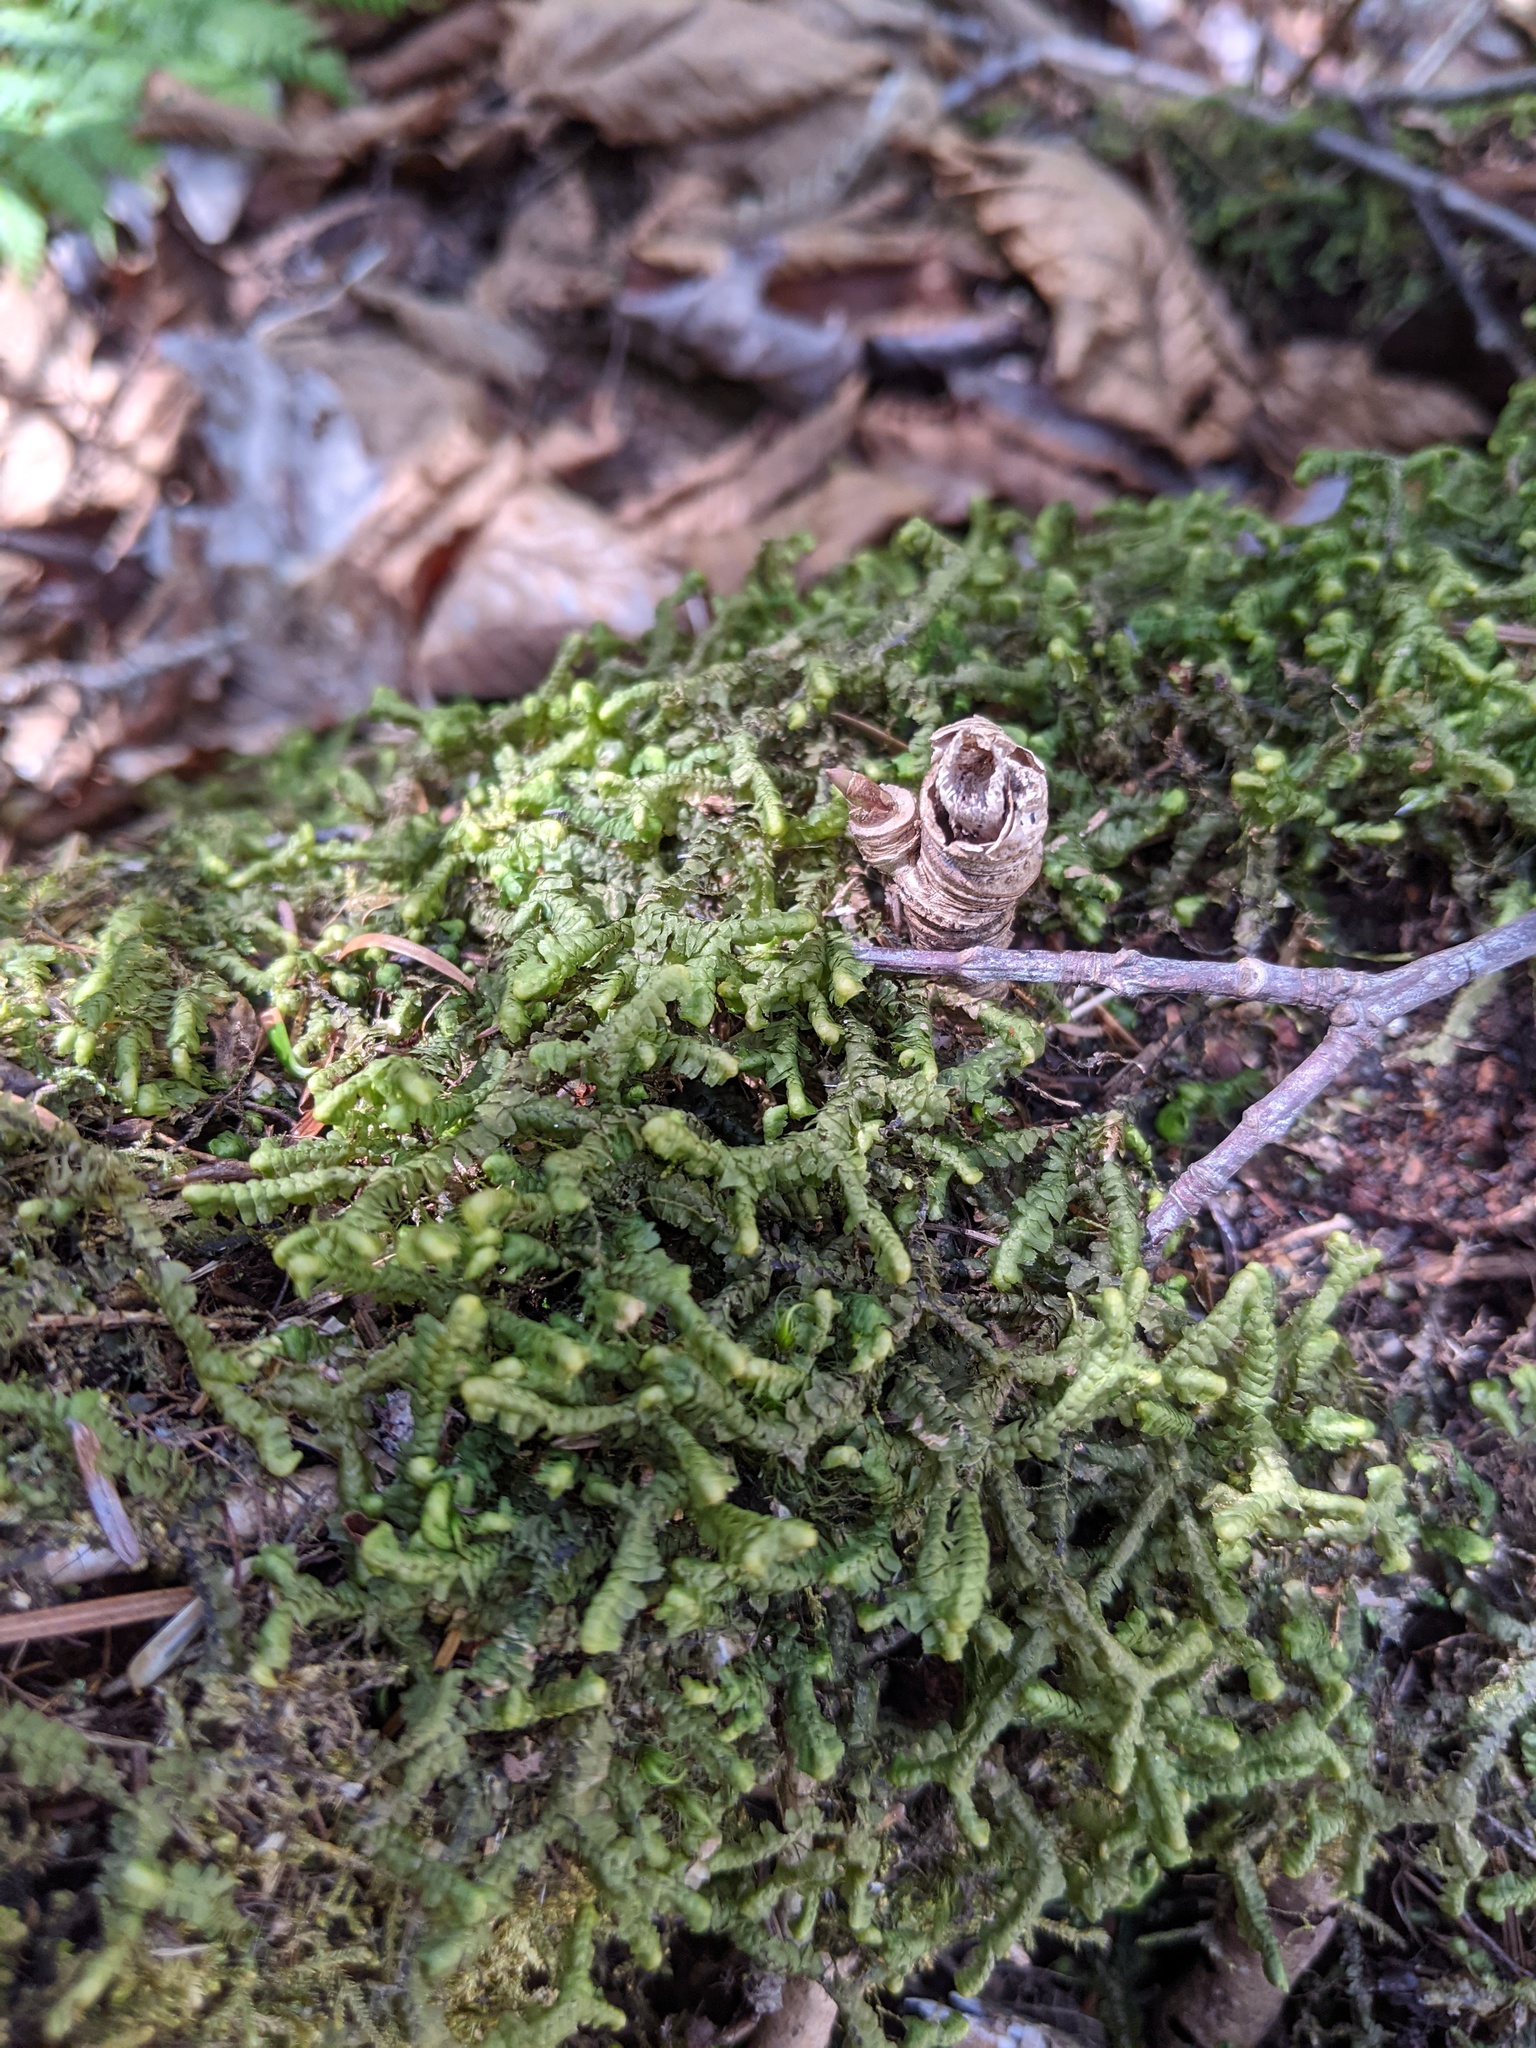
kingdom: Plantae
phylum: Tracheophyta
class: Magnoliopsida
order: Apiales
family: Araliaceae
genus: Aralia
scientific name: Aralia nudicaulis
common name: Wild sarsaparilla
